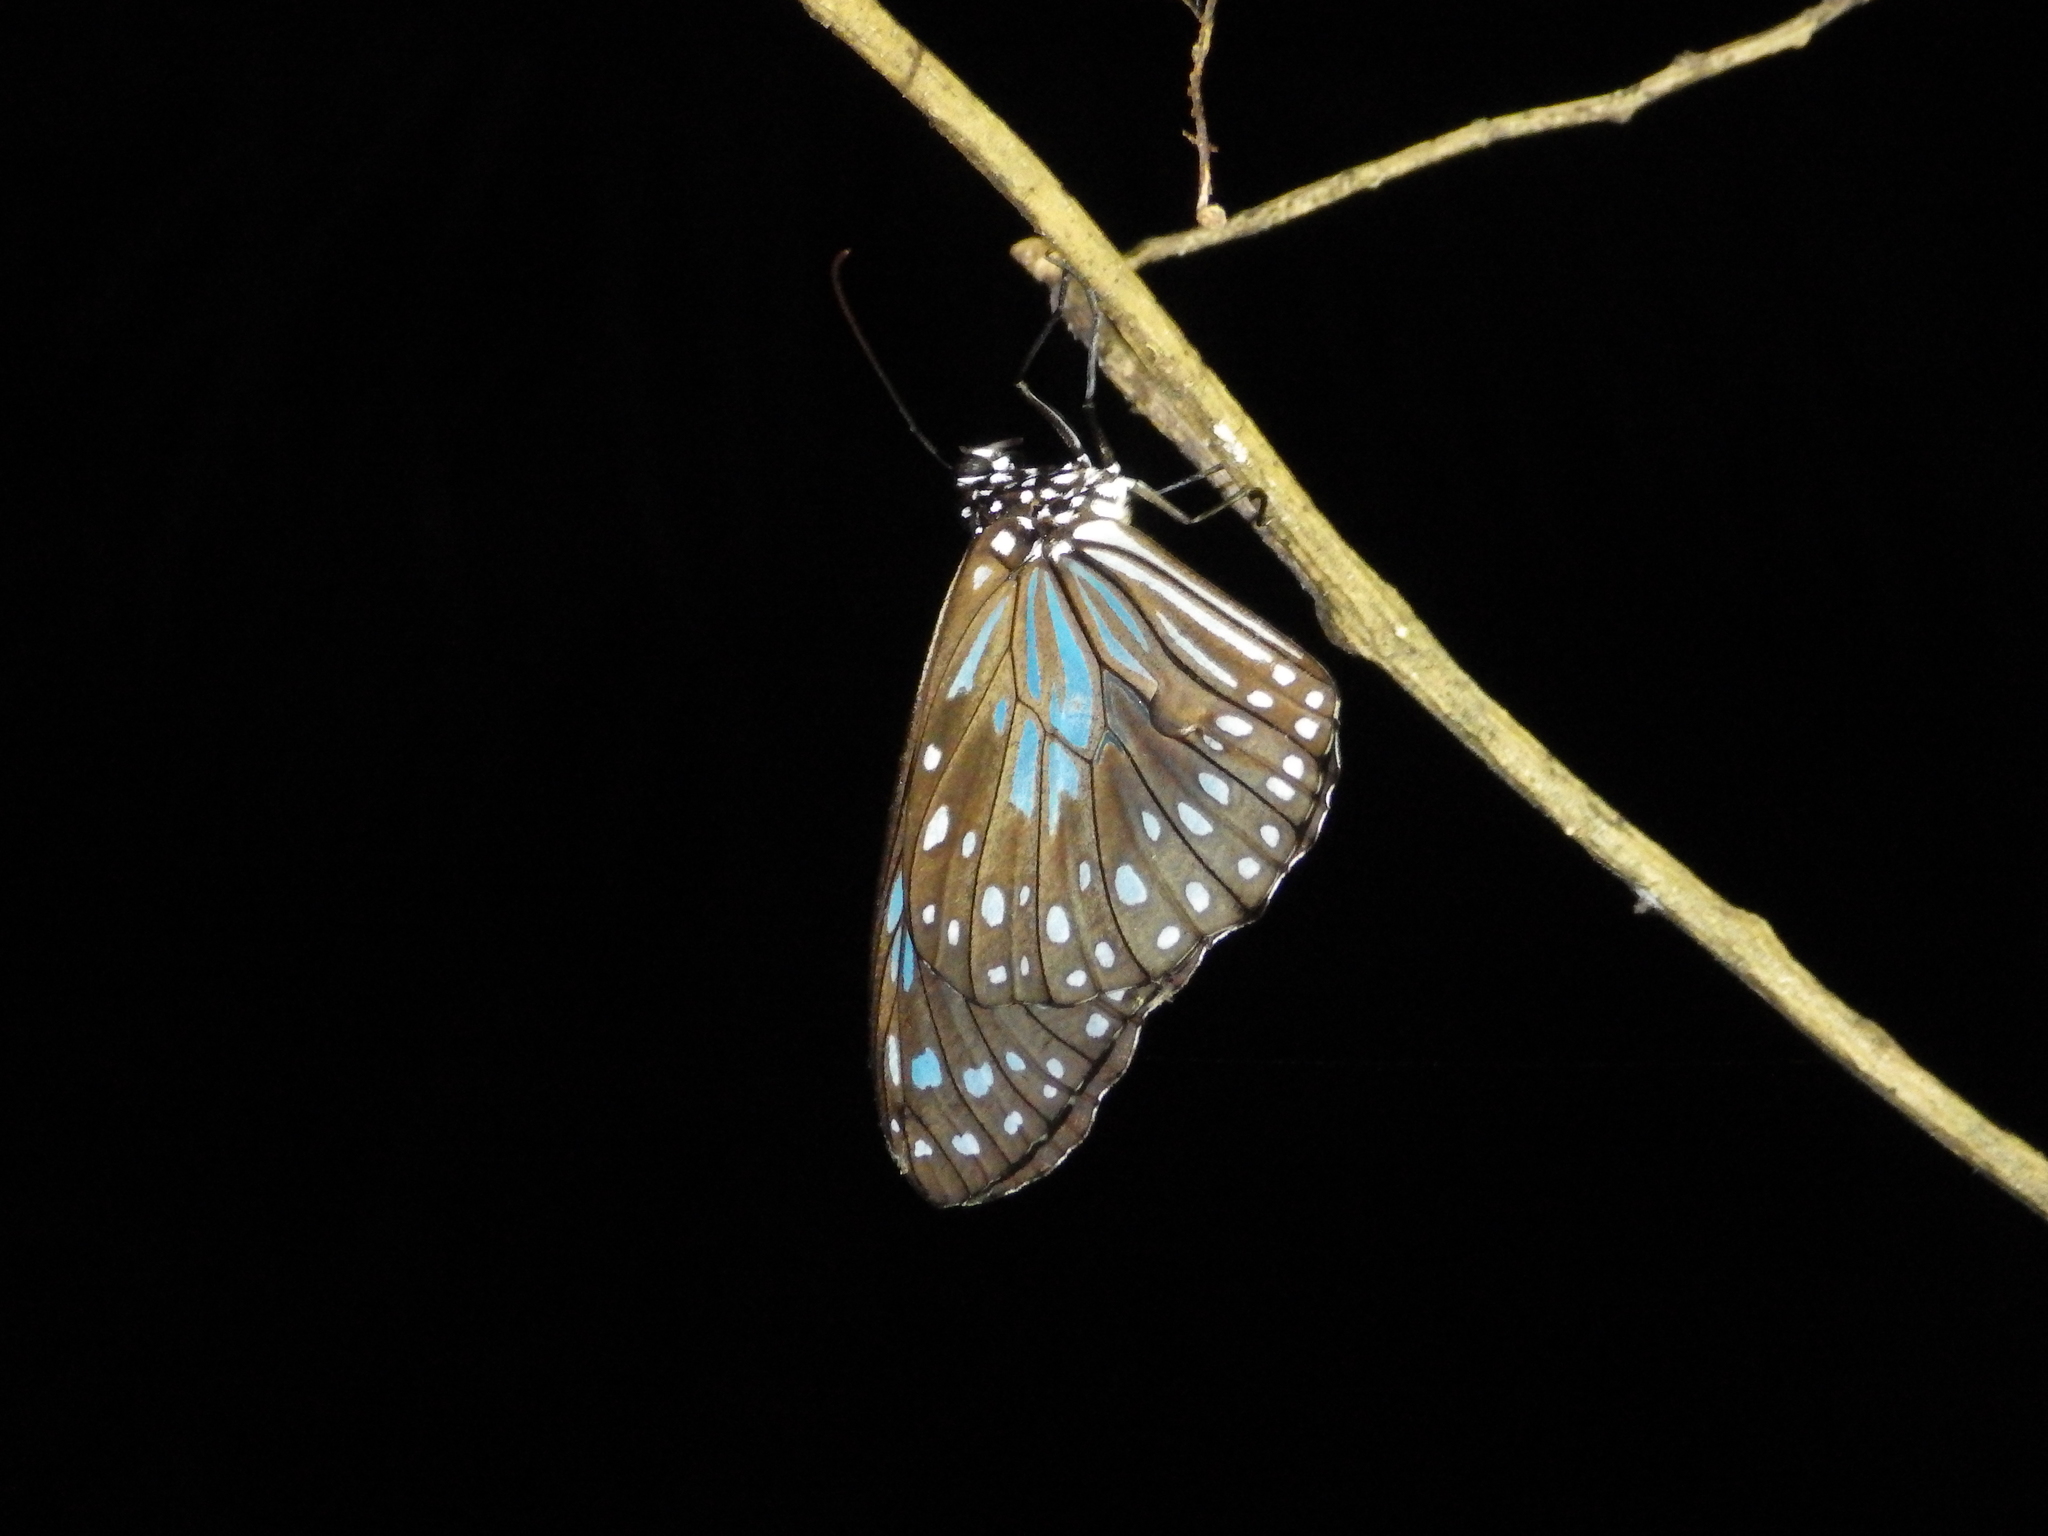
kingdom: Animalia
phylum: Arthropoda
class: Insecta
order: Lepidoptera
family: Nymphalidae
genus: Tirumala
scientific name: Tirumala hamata
